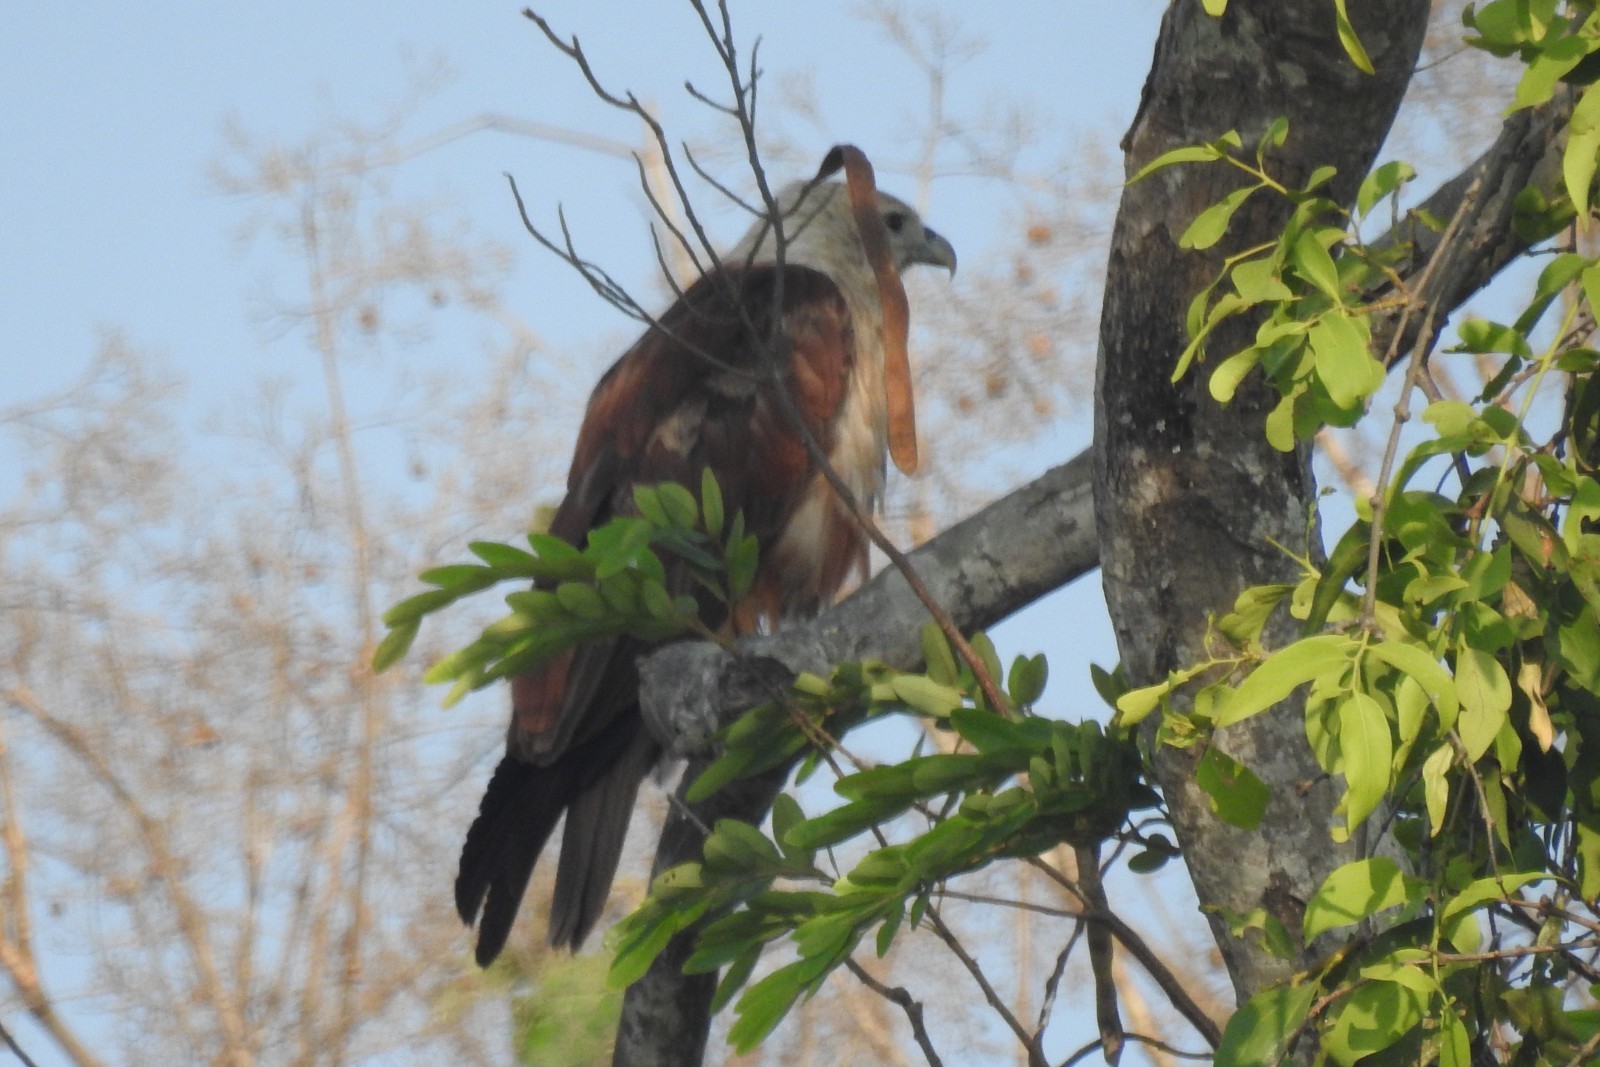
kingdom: Animalia
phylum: Chordata
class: Aves
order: Accipitriformes
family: Accipitridae
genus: Haliastur
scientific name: Haliastur indus
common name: Brahminy kite
